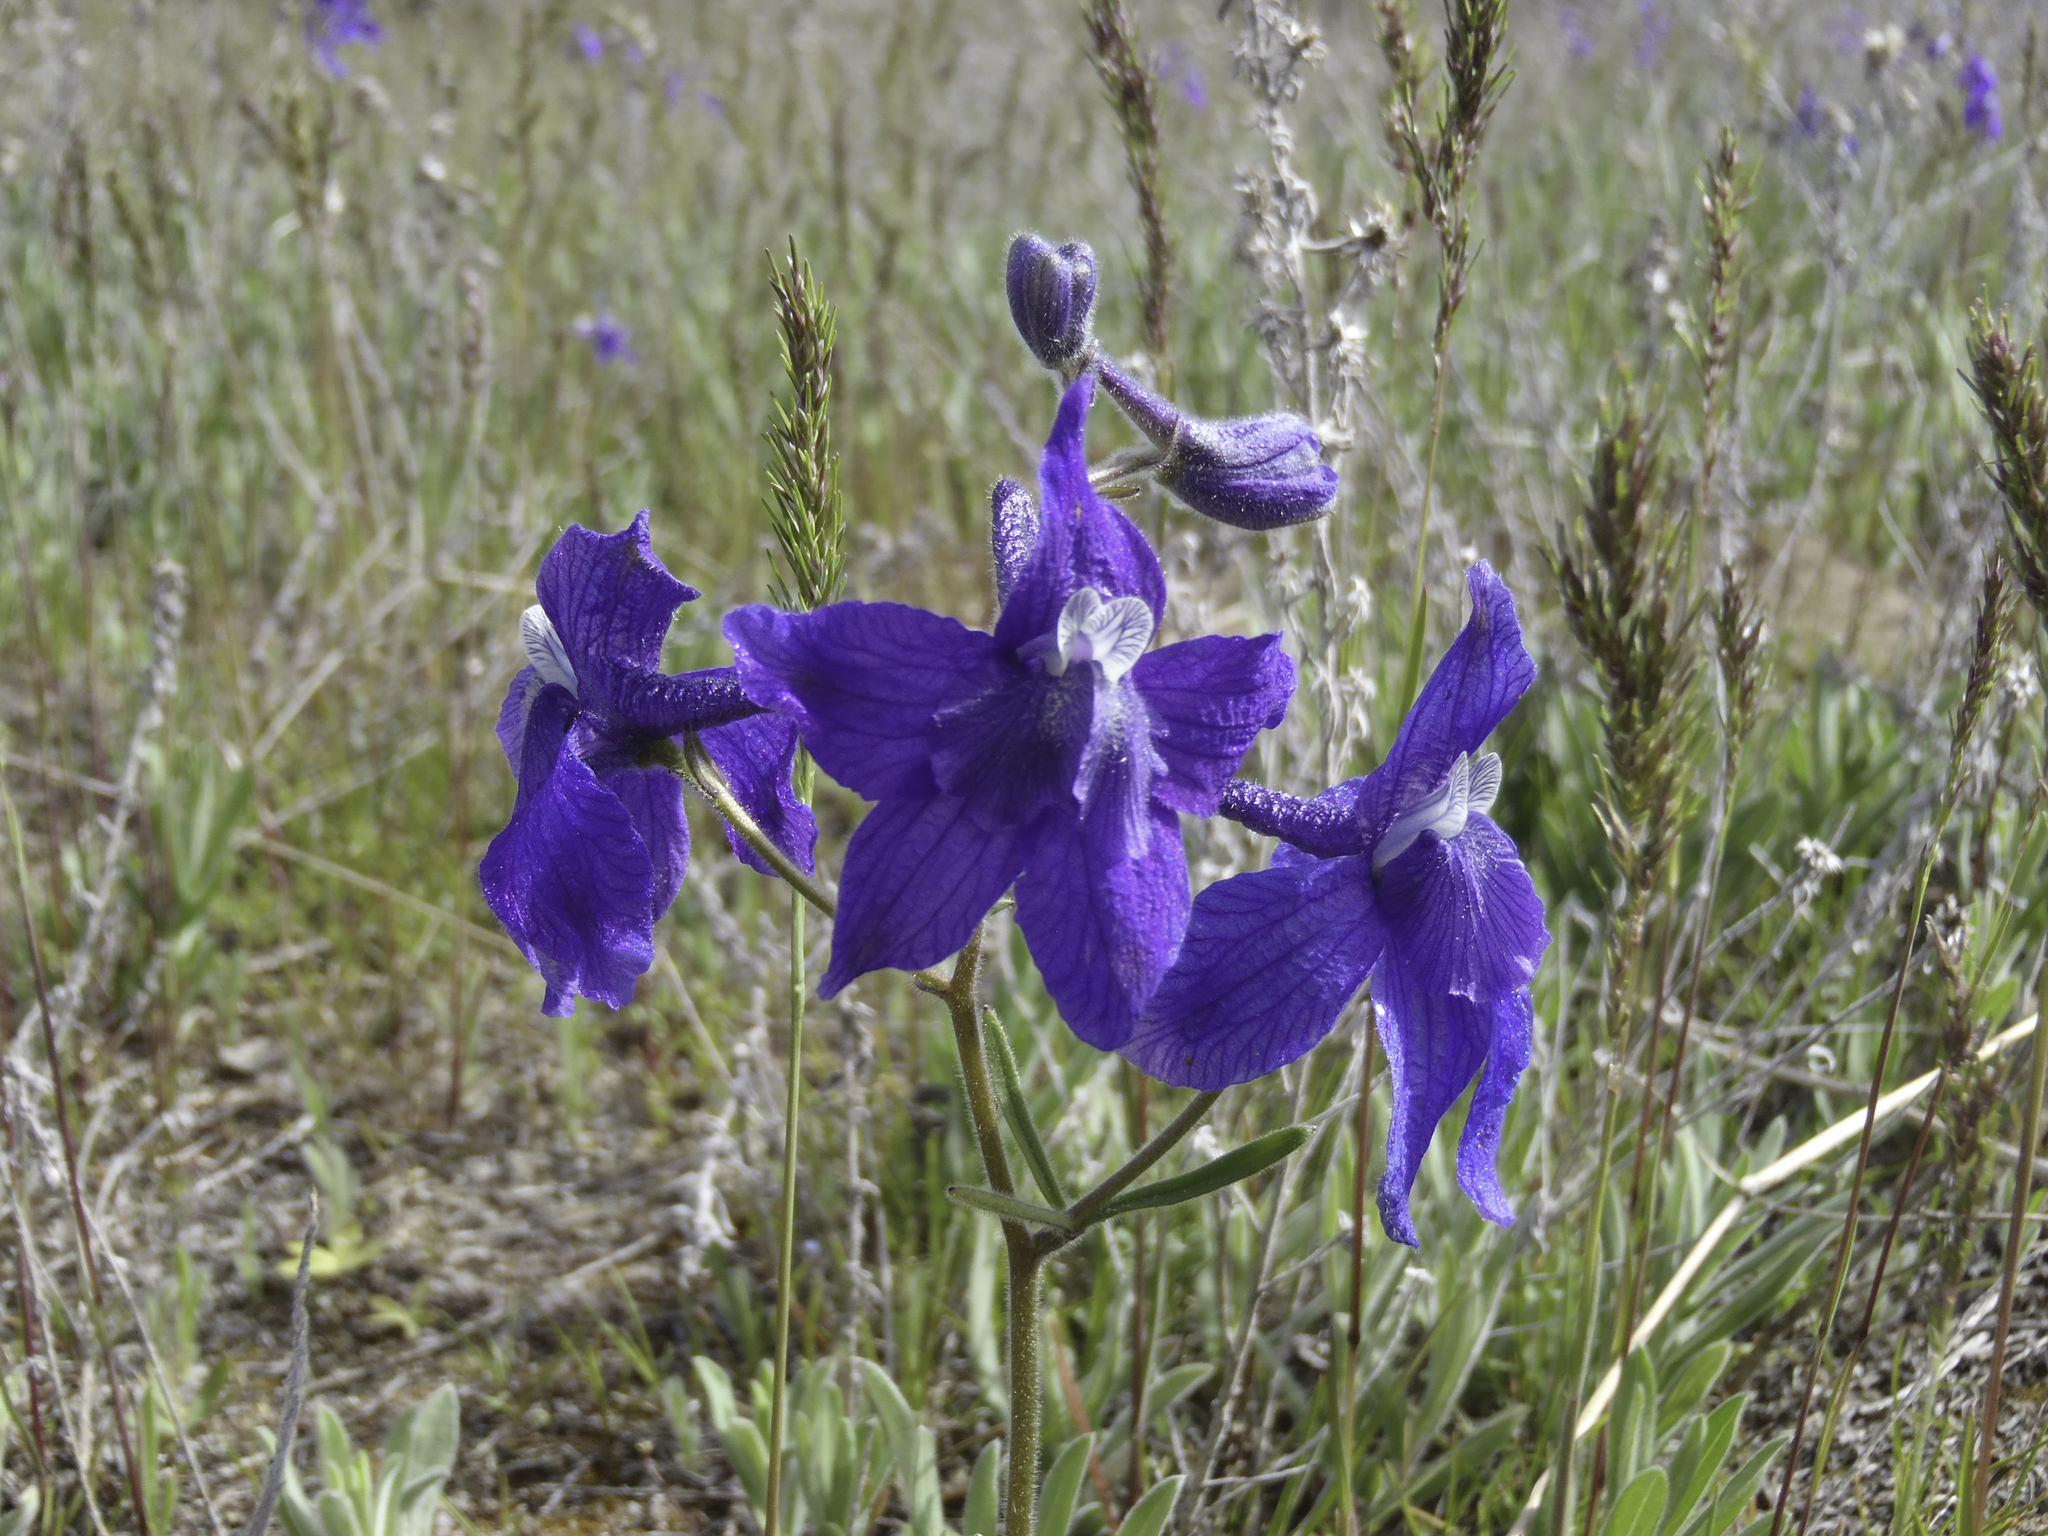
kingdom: Plantae
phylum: Tracheophyta
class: Magnoliopsida
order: Ranunculales
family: Ranunculaceae
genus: Delphinium
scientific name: Delphinium bicolor
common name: Low larkspur
